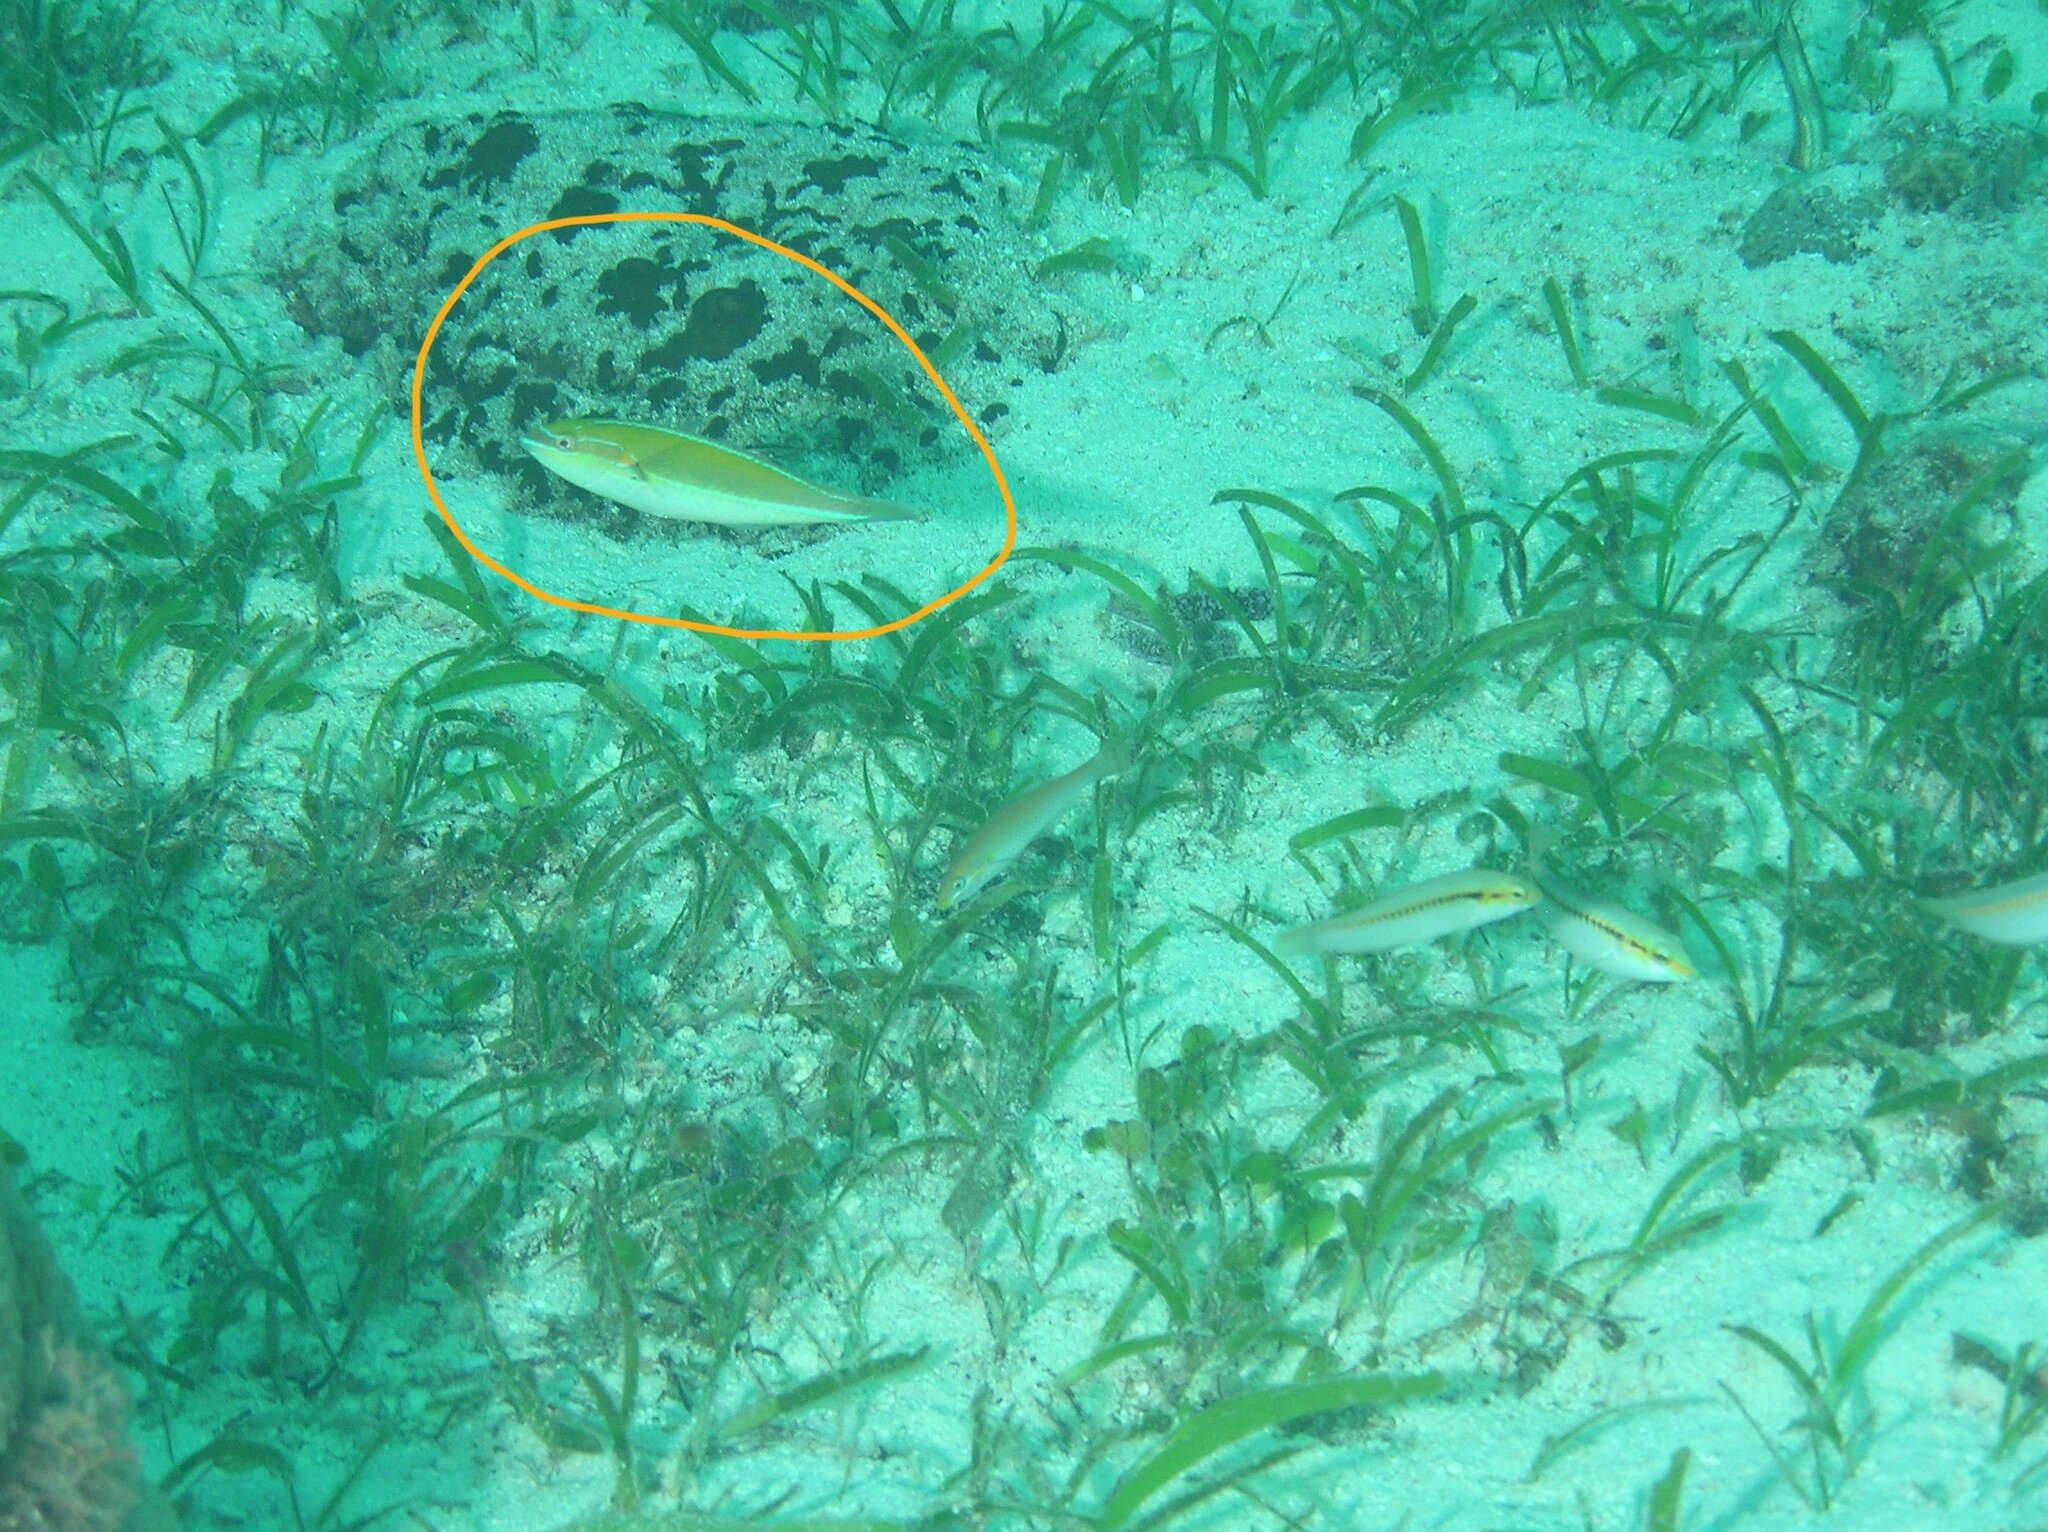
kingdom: Animalia
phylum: Chordata
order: Perciformes
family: Labridae
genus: Stethojulis
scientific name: Stethojulis interrupta
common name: Cutribbon wrasse
